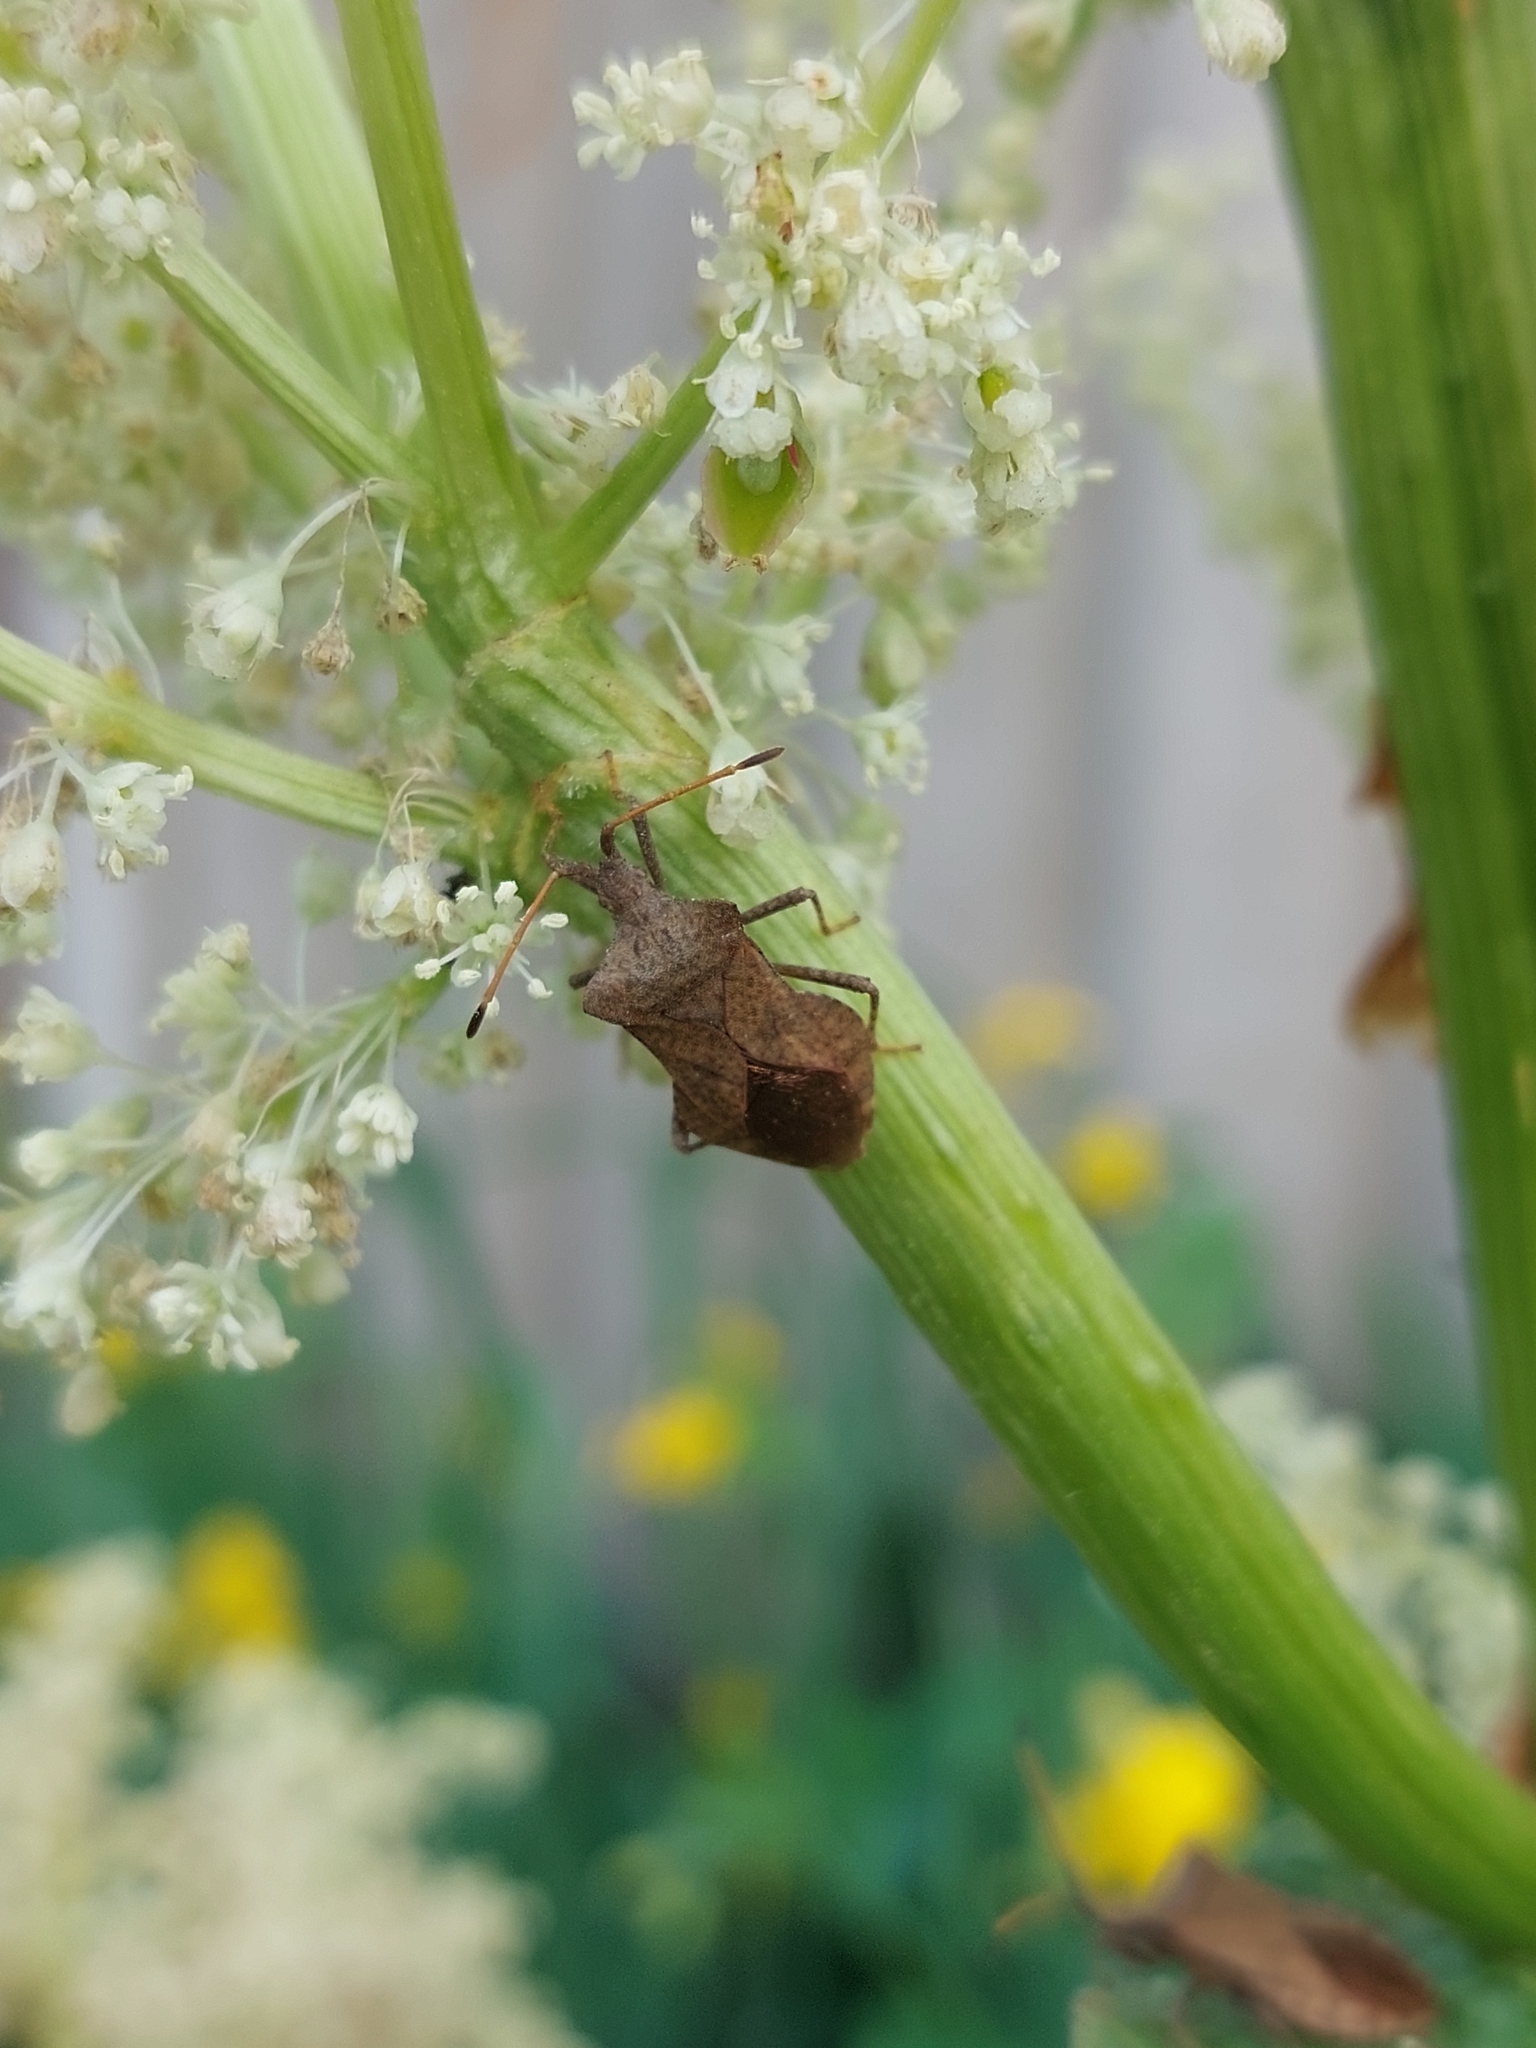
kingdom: Animalia
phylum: Arthropoda
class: Insecta
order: Hemiptera
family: Coreidae
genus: Coreus
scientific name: Coreus marginatus
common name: Dock bug
